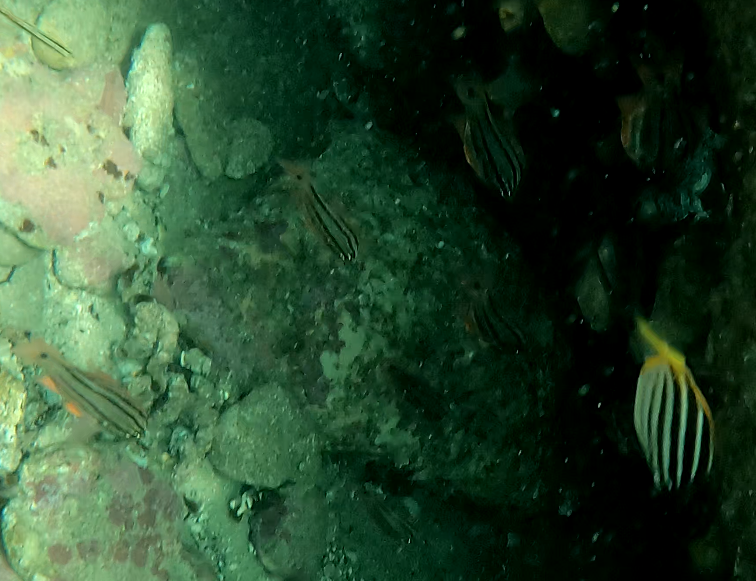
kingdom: Animalia
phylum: Chordata
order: Perciformes
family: Apogonidae
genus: Ostorhinchus
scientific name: Ostorhinchus limenus
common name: Four-banded soldierfish
